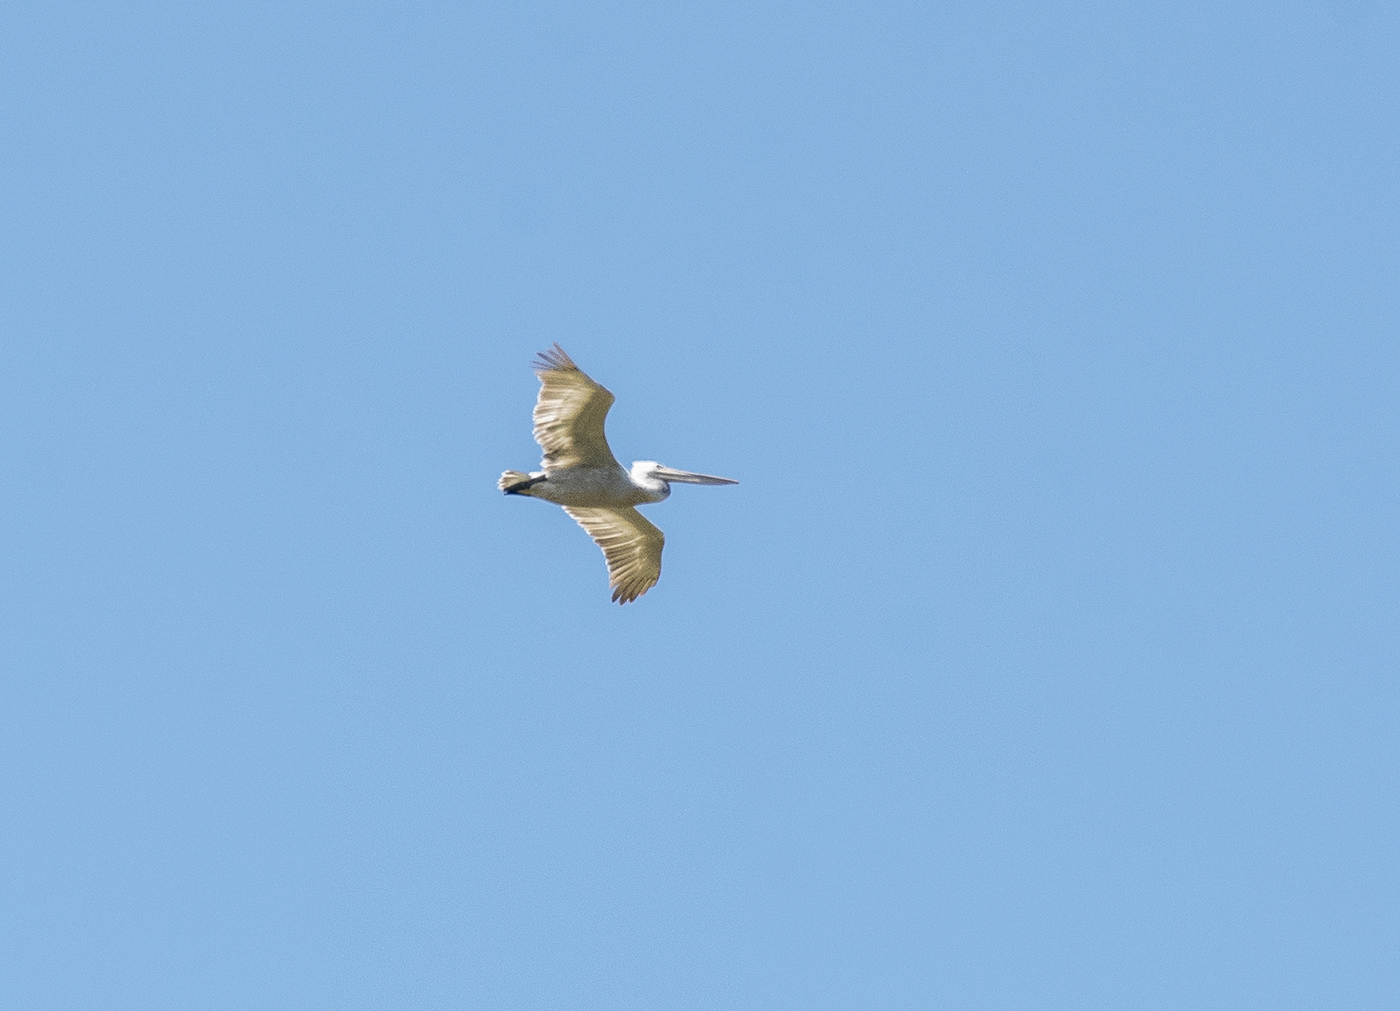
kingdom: Animalia
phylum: Chordata
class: Aves
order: Pelecaniformes
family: Pelecanidae
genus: Pelecanus
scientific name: Pelecanus crispus
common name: Dalmatian pelican
